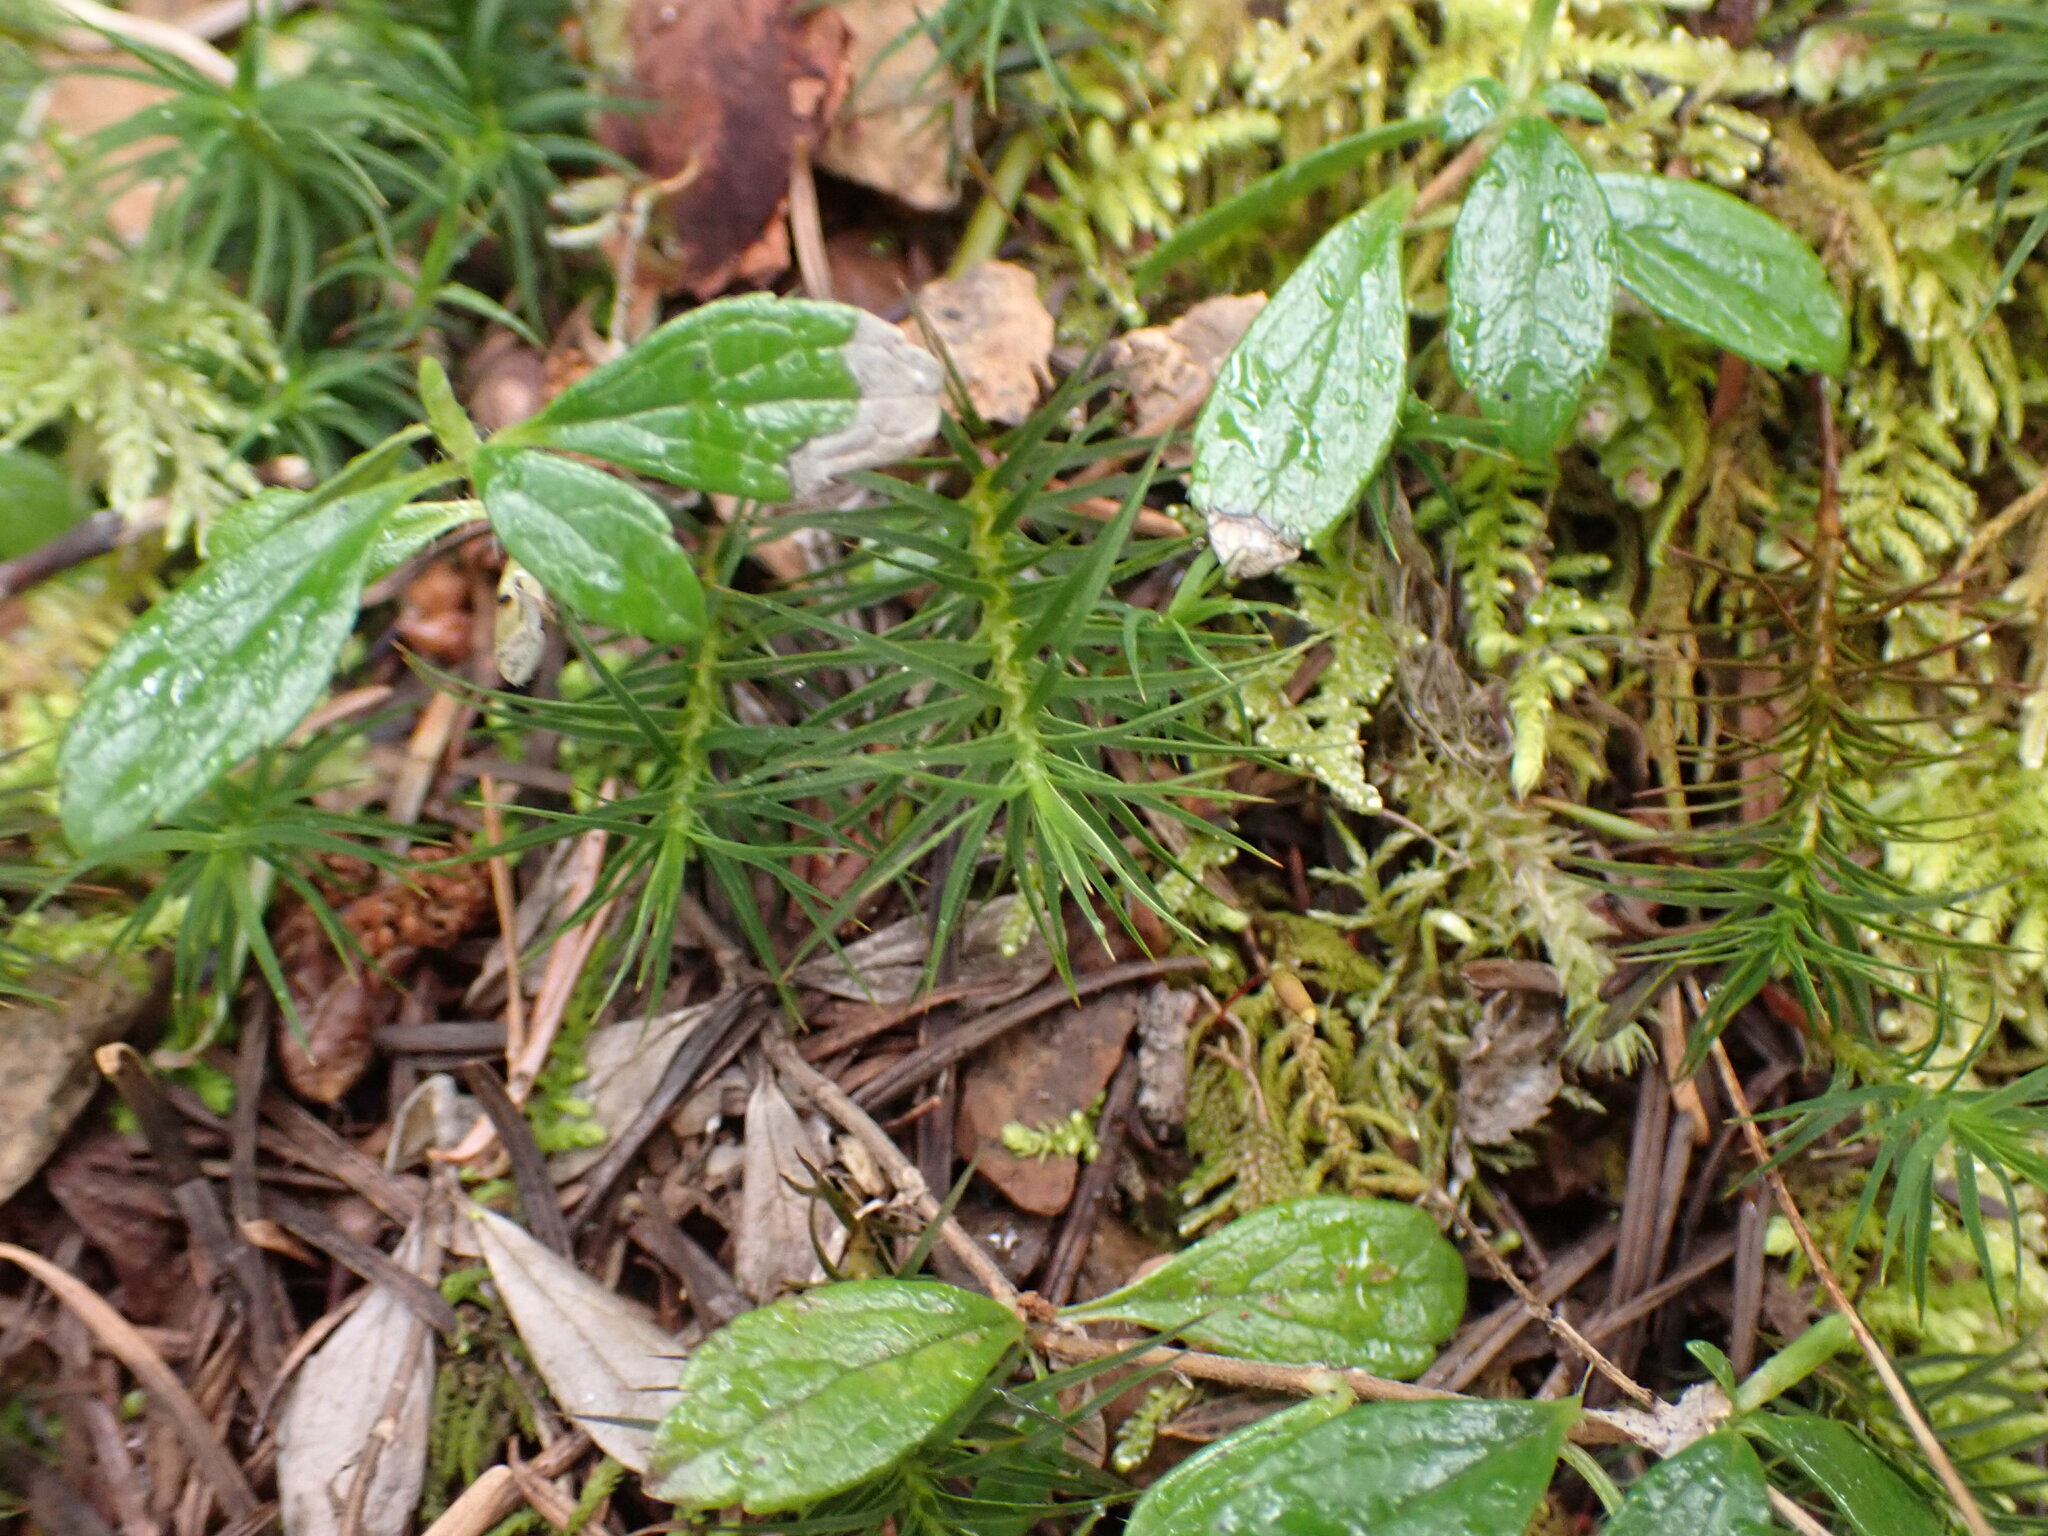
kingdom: Plantae
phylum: Bryophyta
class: Polytrichopsida
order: Polytrichales
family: Polytrichaceae
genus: Polytrichastrum
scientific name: Polytrichastrum alpinum
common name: Alpine haircap
